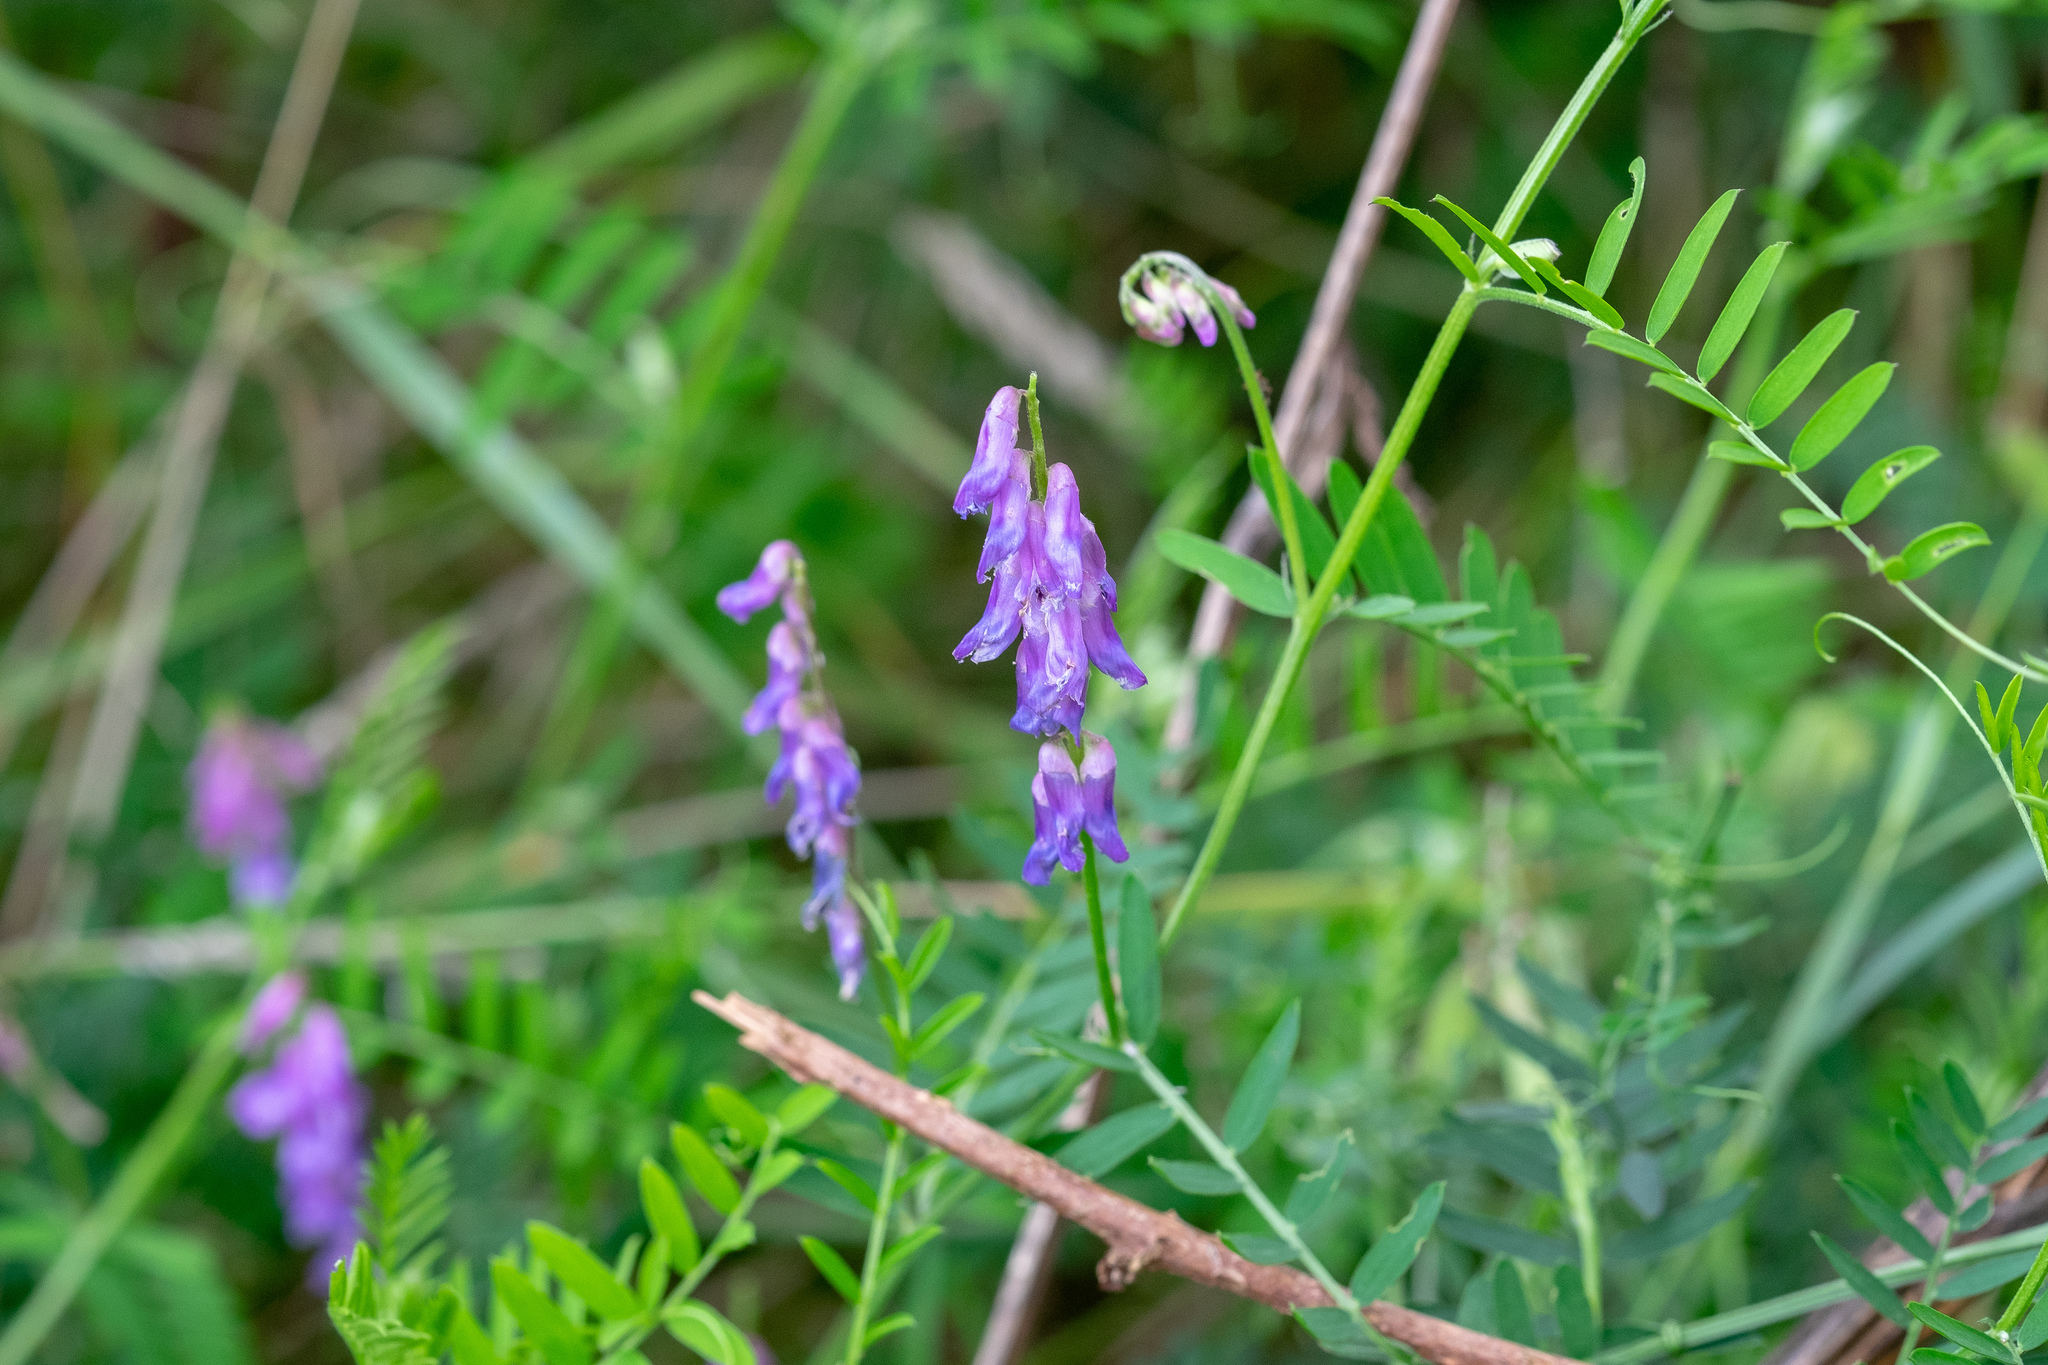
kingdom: Plantae
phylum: Tracheophyta
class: Magnoliopsida
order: Fabales
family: Fabaceae
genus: Vicia
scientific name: Vicia cracca
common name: Bird vetch
